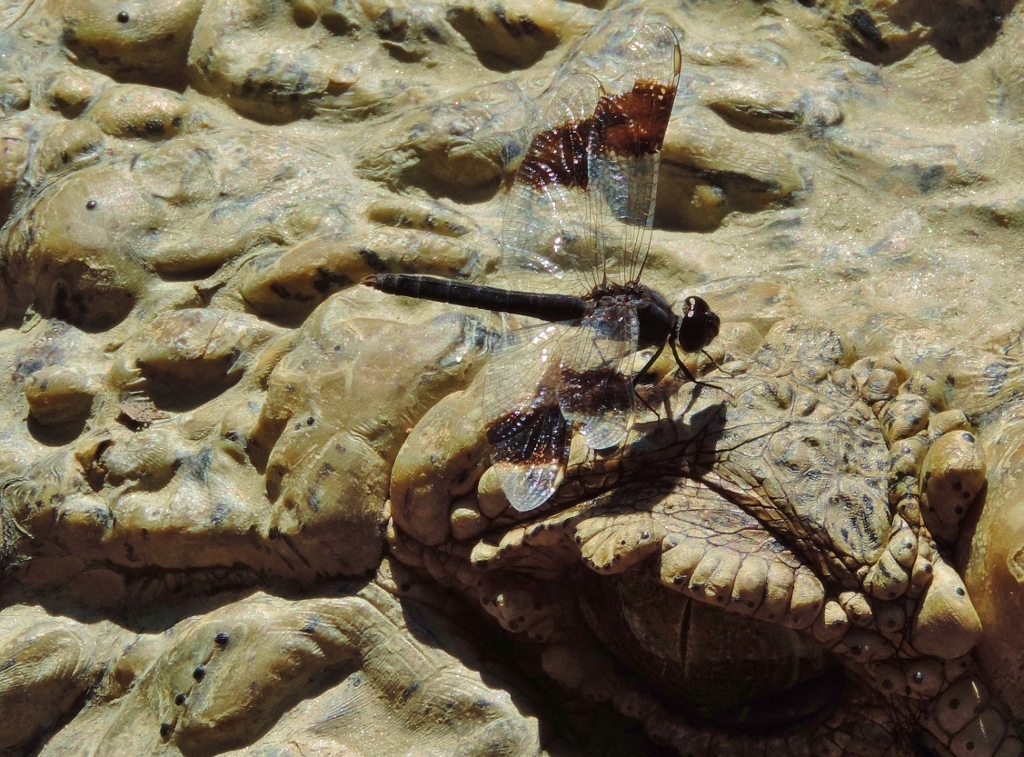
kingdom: Animalia
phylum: Arthropoda
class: Insecta
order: Odonata
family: Libellulidae
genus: Brachythemis
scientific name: Brachythemis leucosticta
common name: Banded groundling
